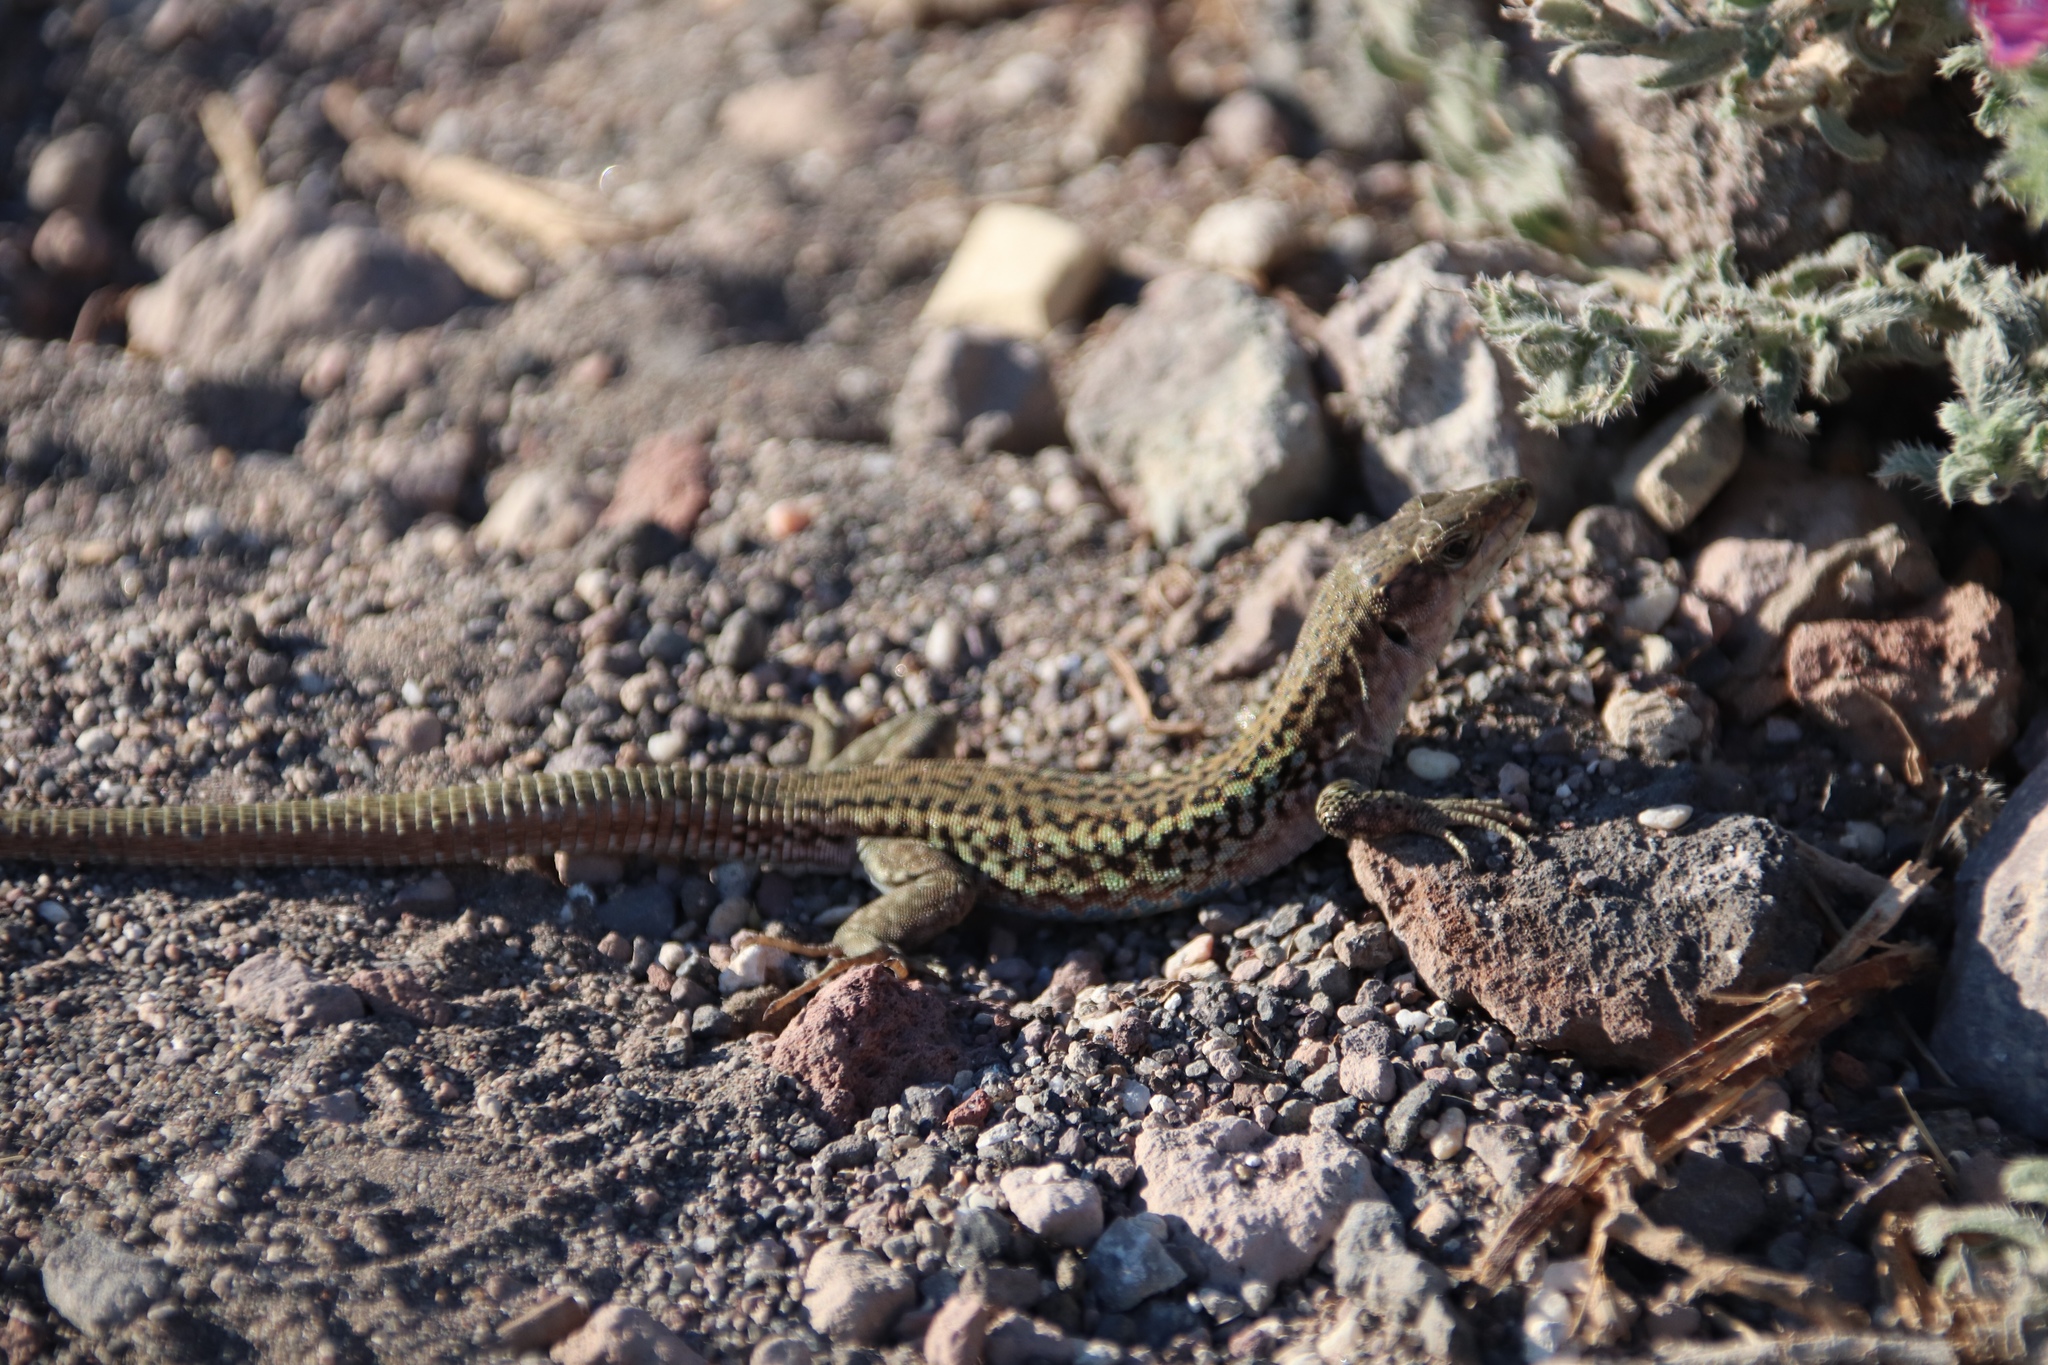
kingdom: Animalia
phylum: Chordata
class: Squamata
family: Lacertidae
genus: Podarcis
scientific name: Podarcis erhardii
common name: Erhard's wall lizard
